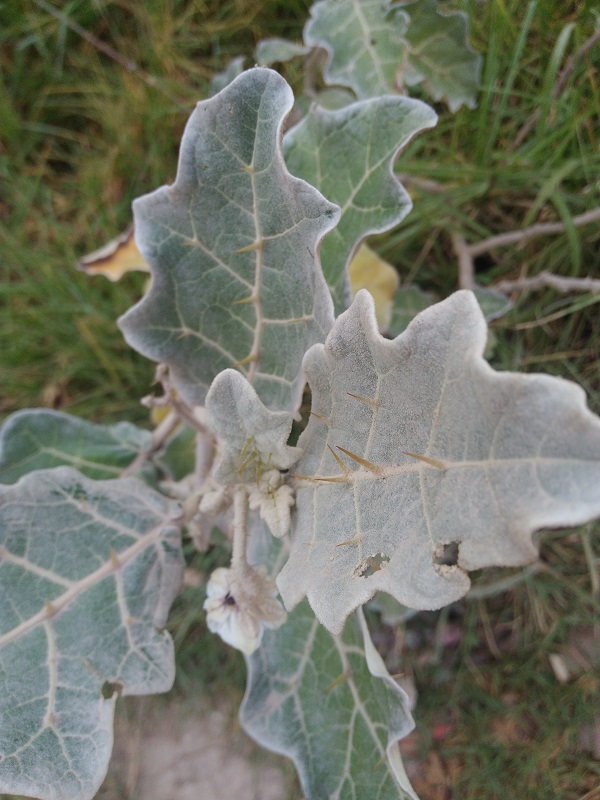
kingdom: Plantae
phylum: Tracheophyta
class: Magnoliopsida
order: Solanales
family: Solanaceae
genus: Solanum
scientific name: Solanum marginatum
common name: Purple african nightshade
